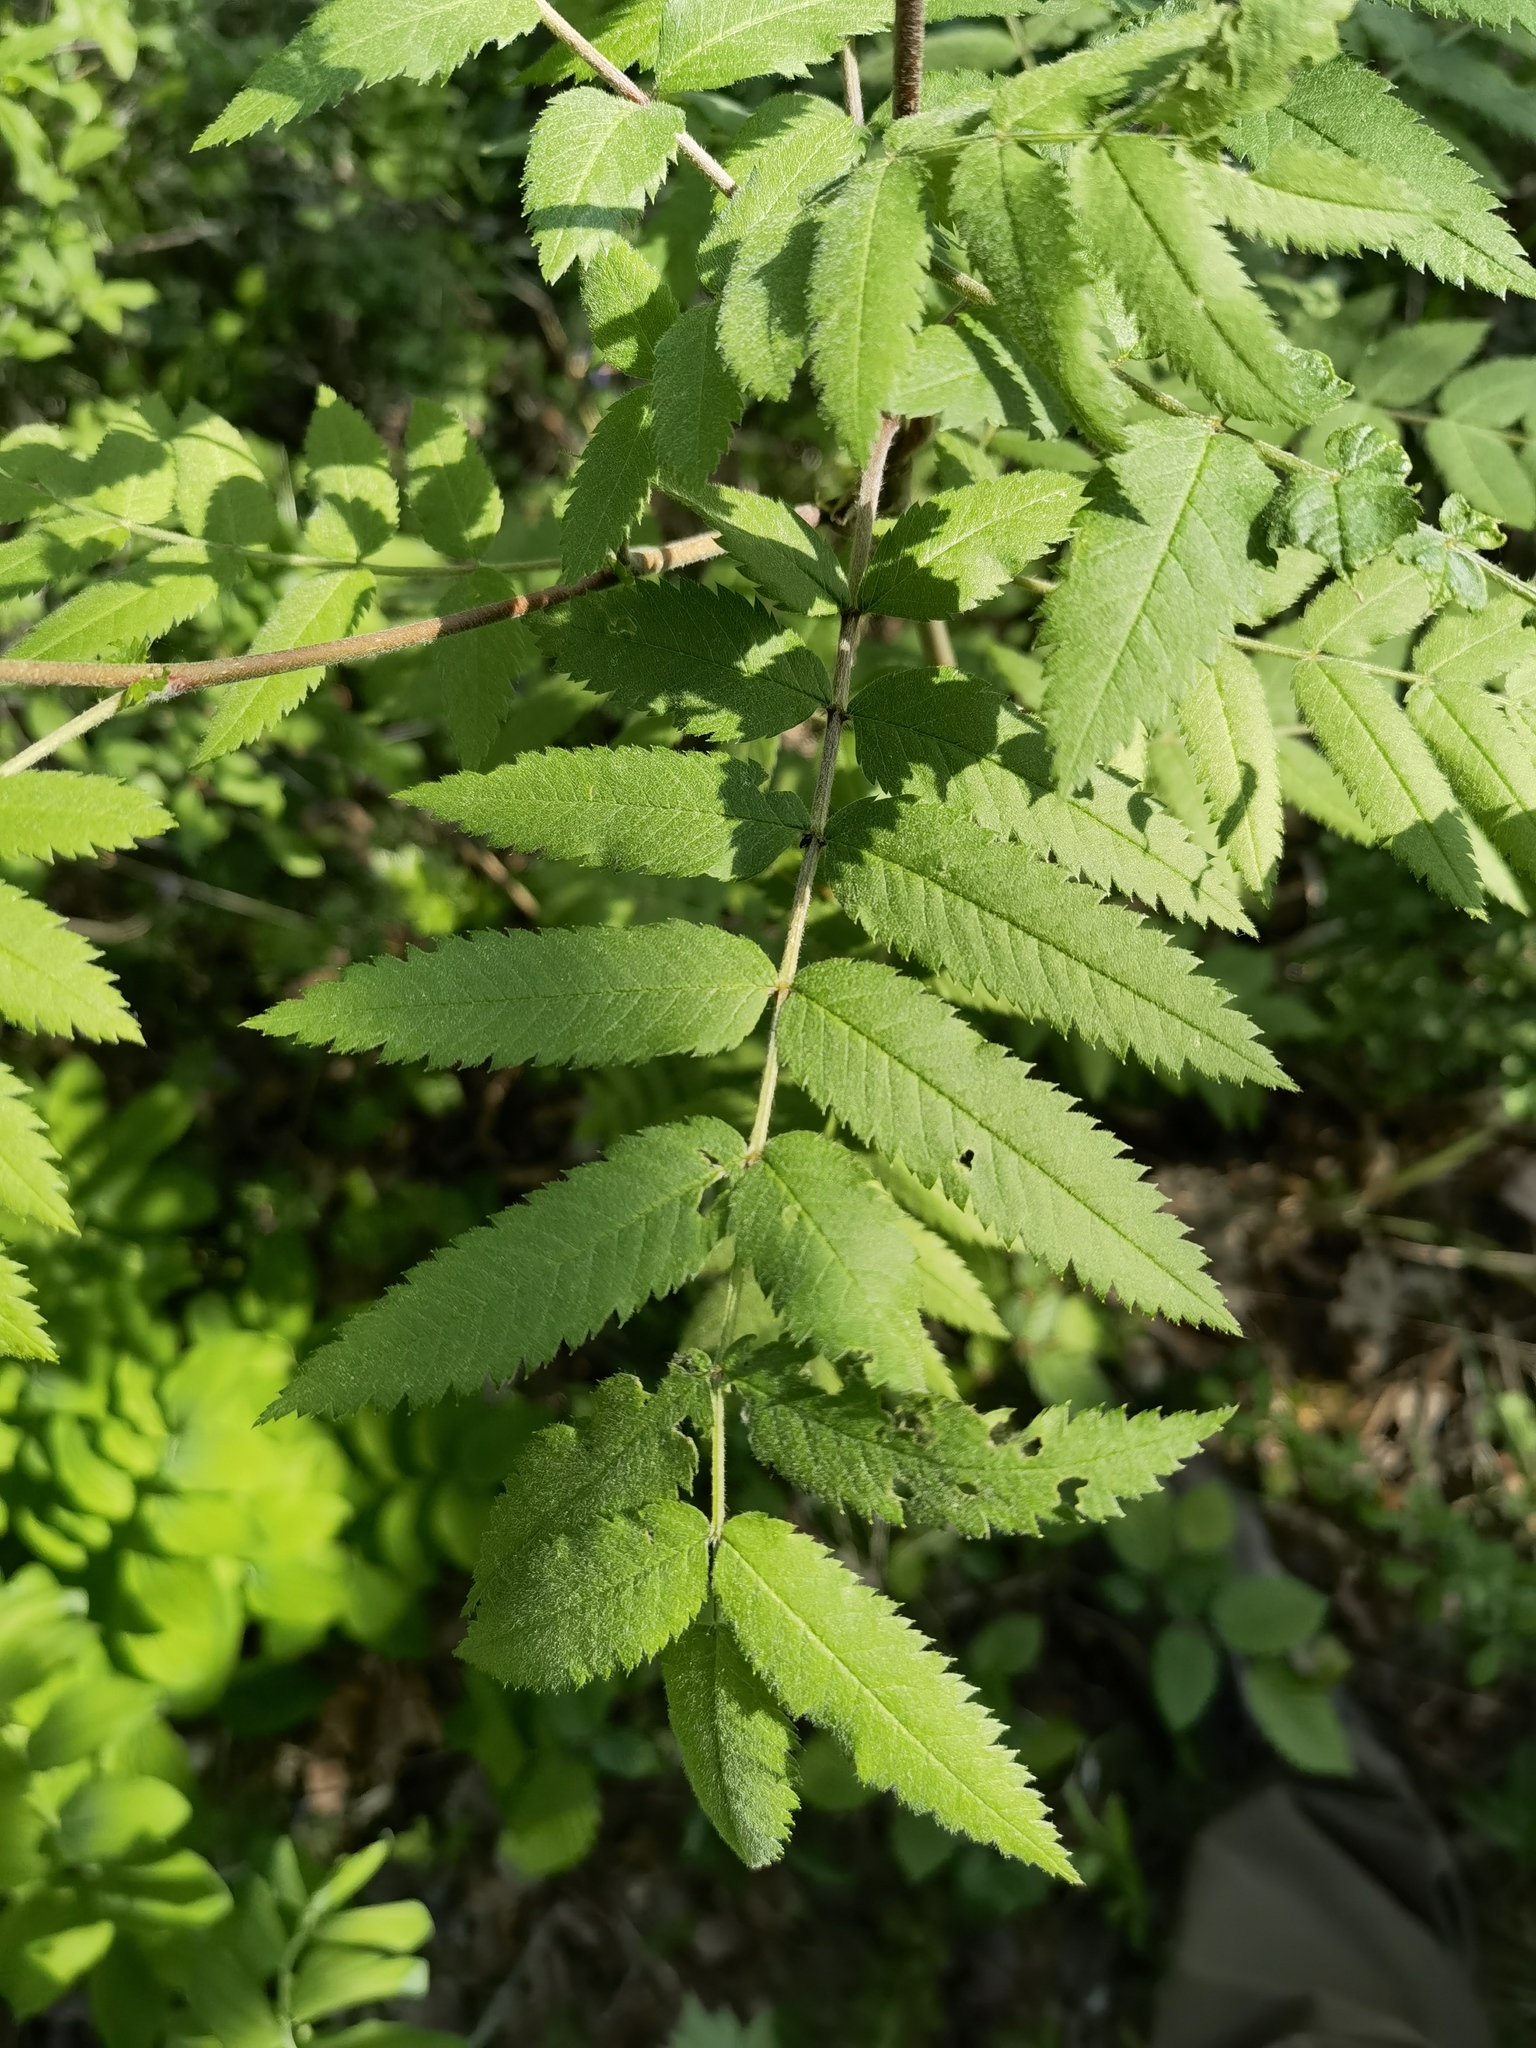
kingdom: Plantae
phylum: Tracheophyta
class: Magnoliopsida
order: Rosales
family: Rosaceae
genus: Sorbus
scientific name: Sorbus aucuparia
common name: Rowan
